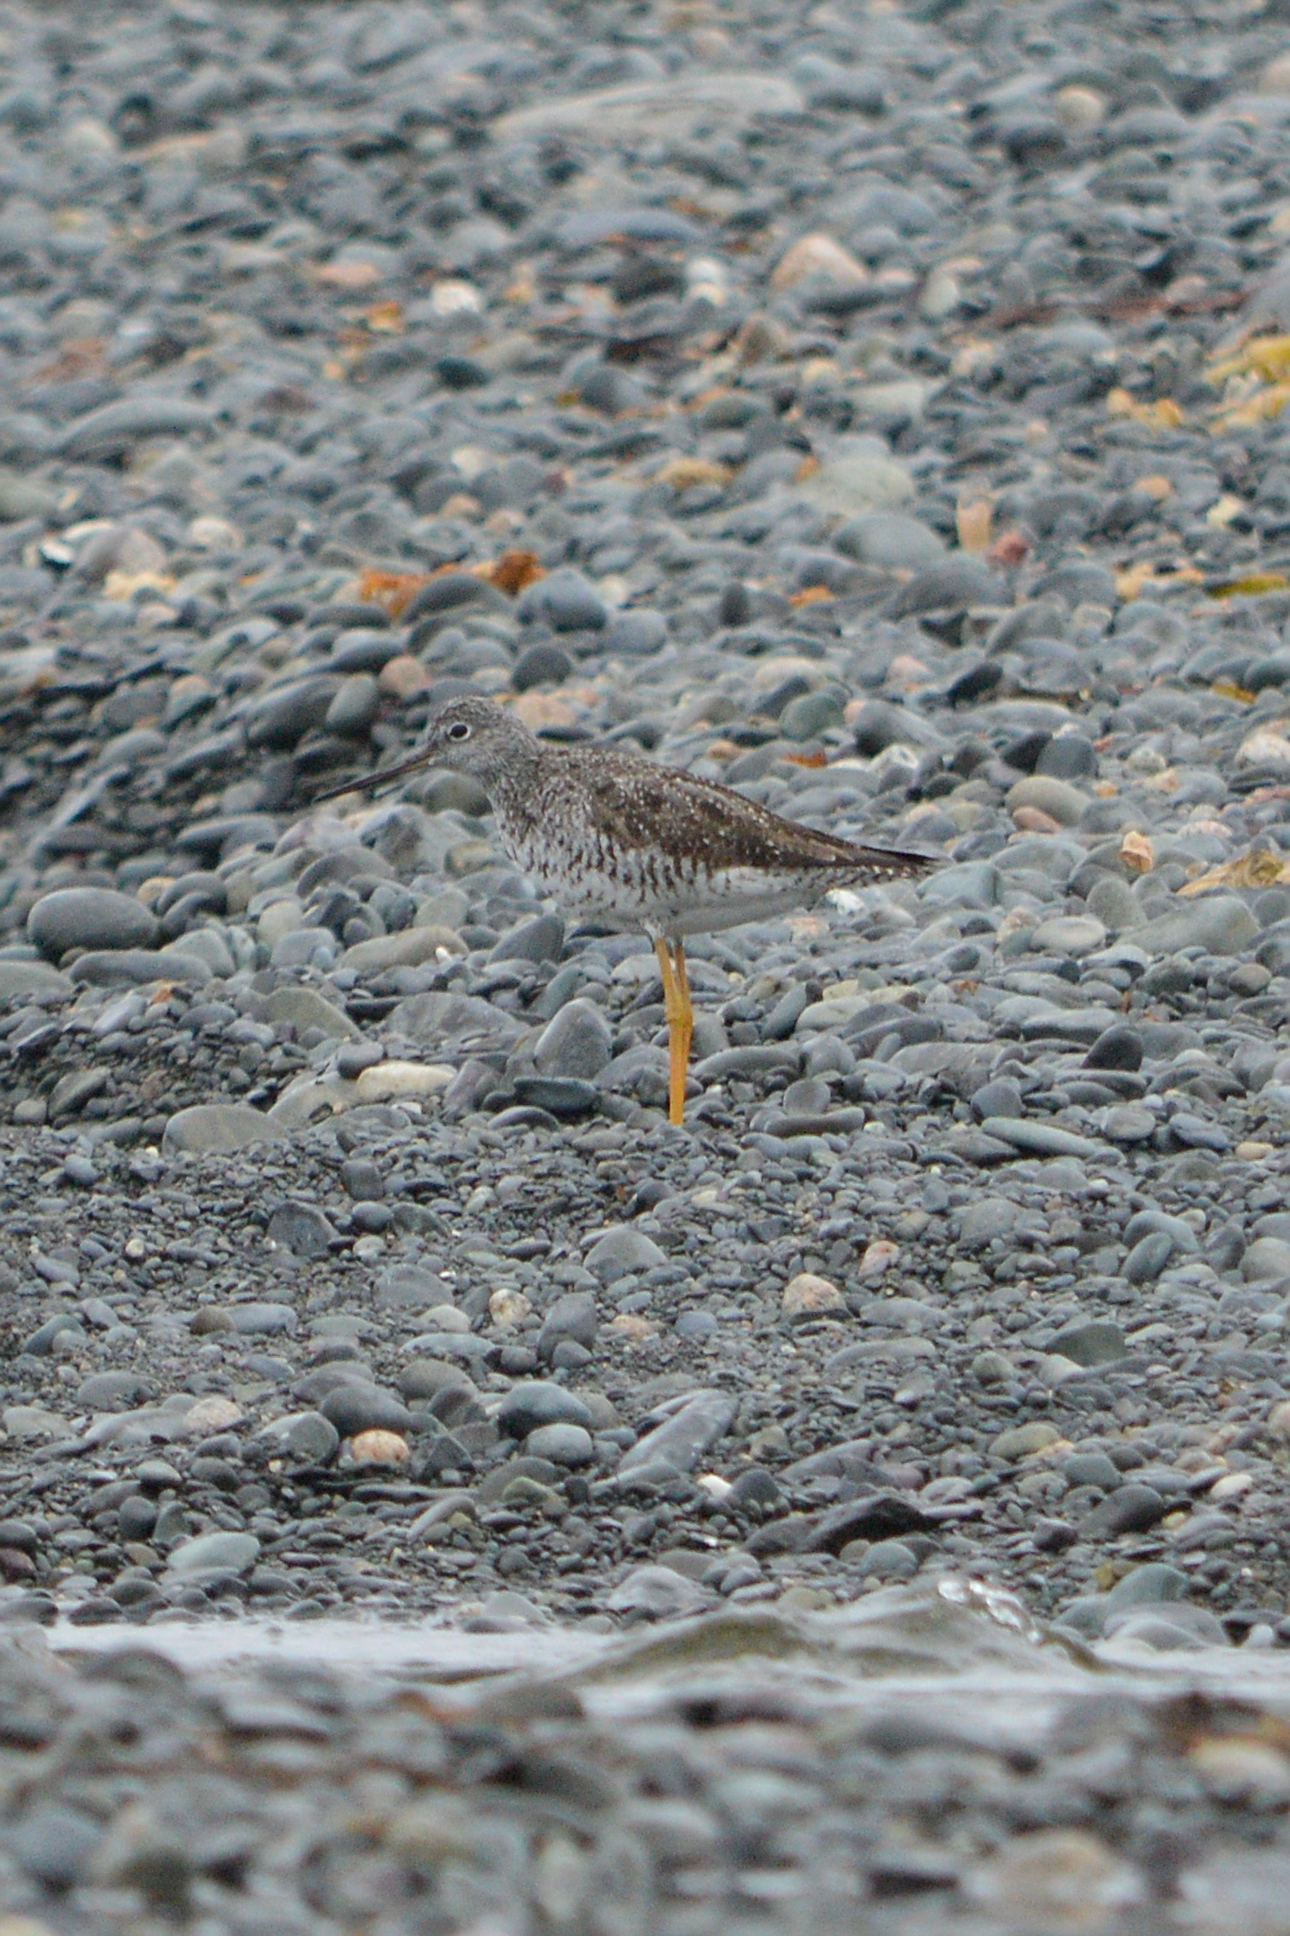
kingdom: Animalia
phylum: Chordata
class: Aves
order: Charadriiformes
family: Scolopacidae
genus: Tringa
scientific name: Tringa melanoleuca
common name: Greater yellowlegs
